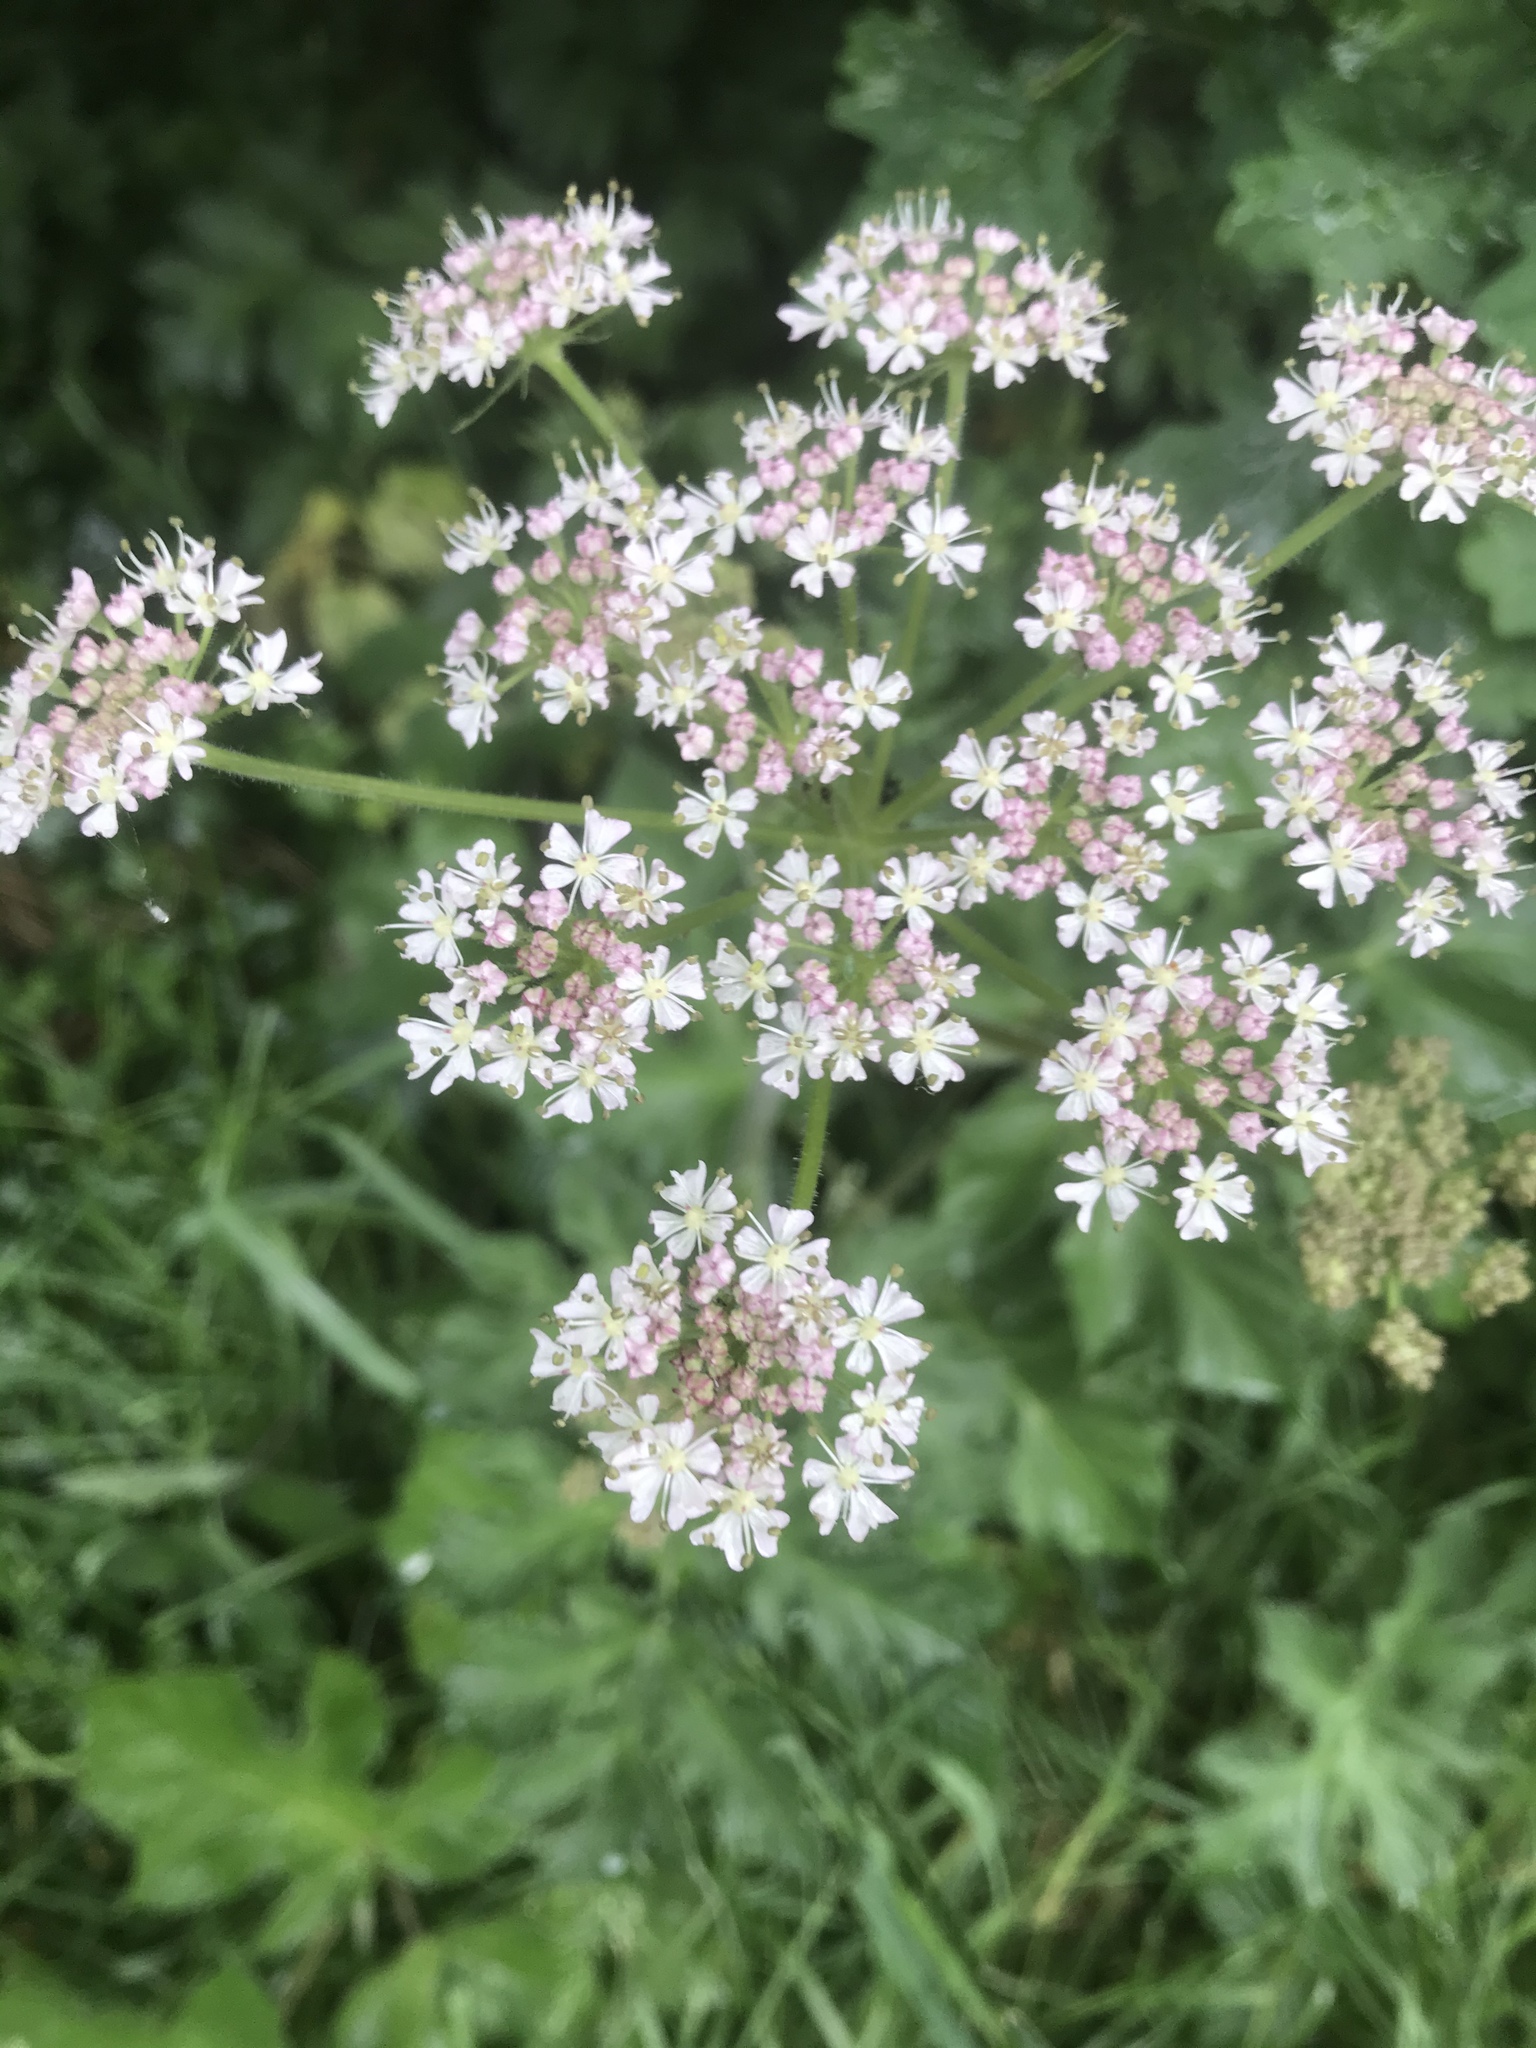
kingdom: Plantae
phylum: Tracheophyta
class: Magnoliopsida
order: Apiales
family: Apiaceae
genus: Heracleum
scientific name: Heracleum sphondylium
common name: Hogweed
